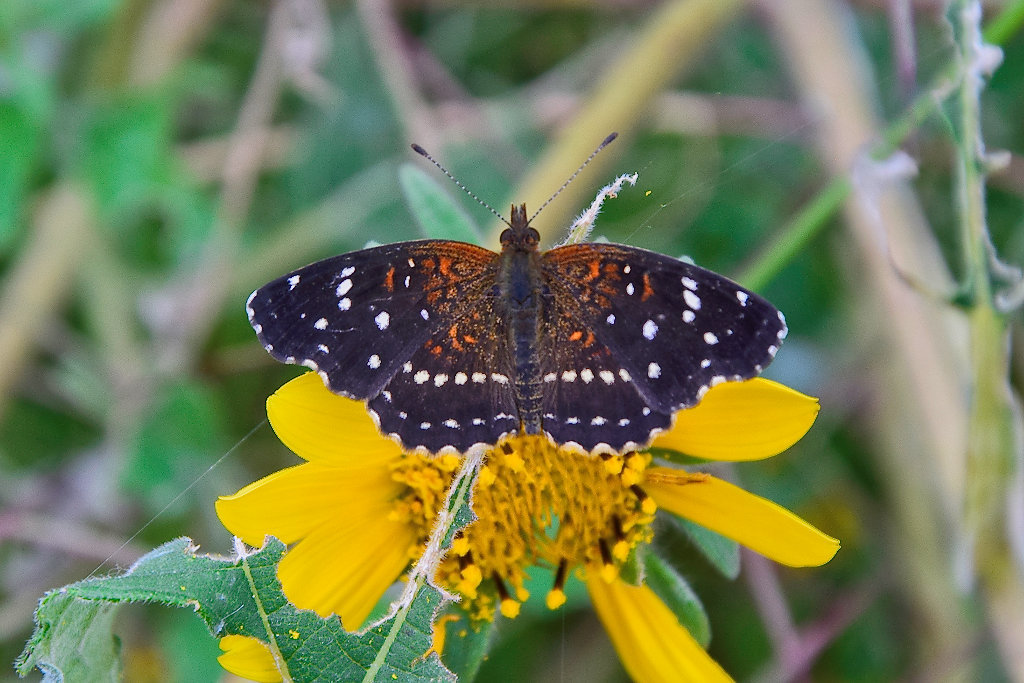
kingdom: Animalia
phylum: Arthropoda
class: Insecta
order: Lepidoptera
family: Nymphalidae
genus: Anthanassa
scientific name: Anthanassa texana
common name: Texan crescent
